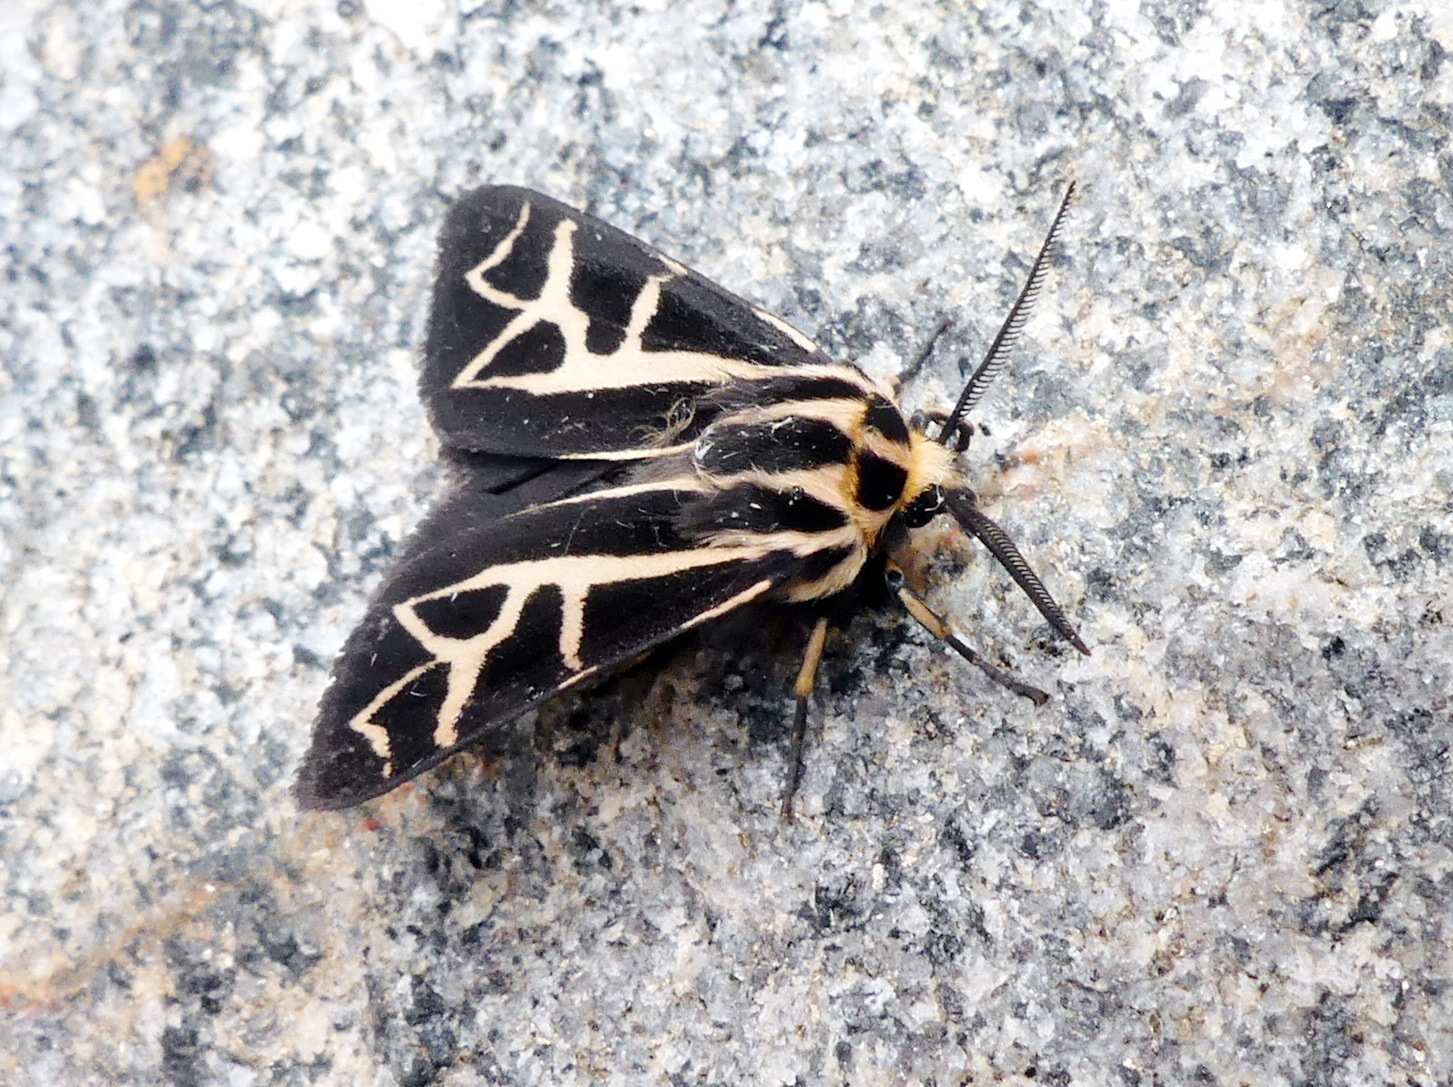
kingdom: Animalia
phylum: Arthropoda
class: Insecta
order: Lepidoptera
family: Erebidae
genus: Apantesis
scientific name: Apantesis
